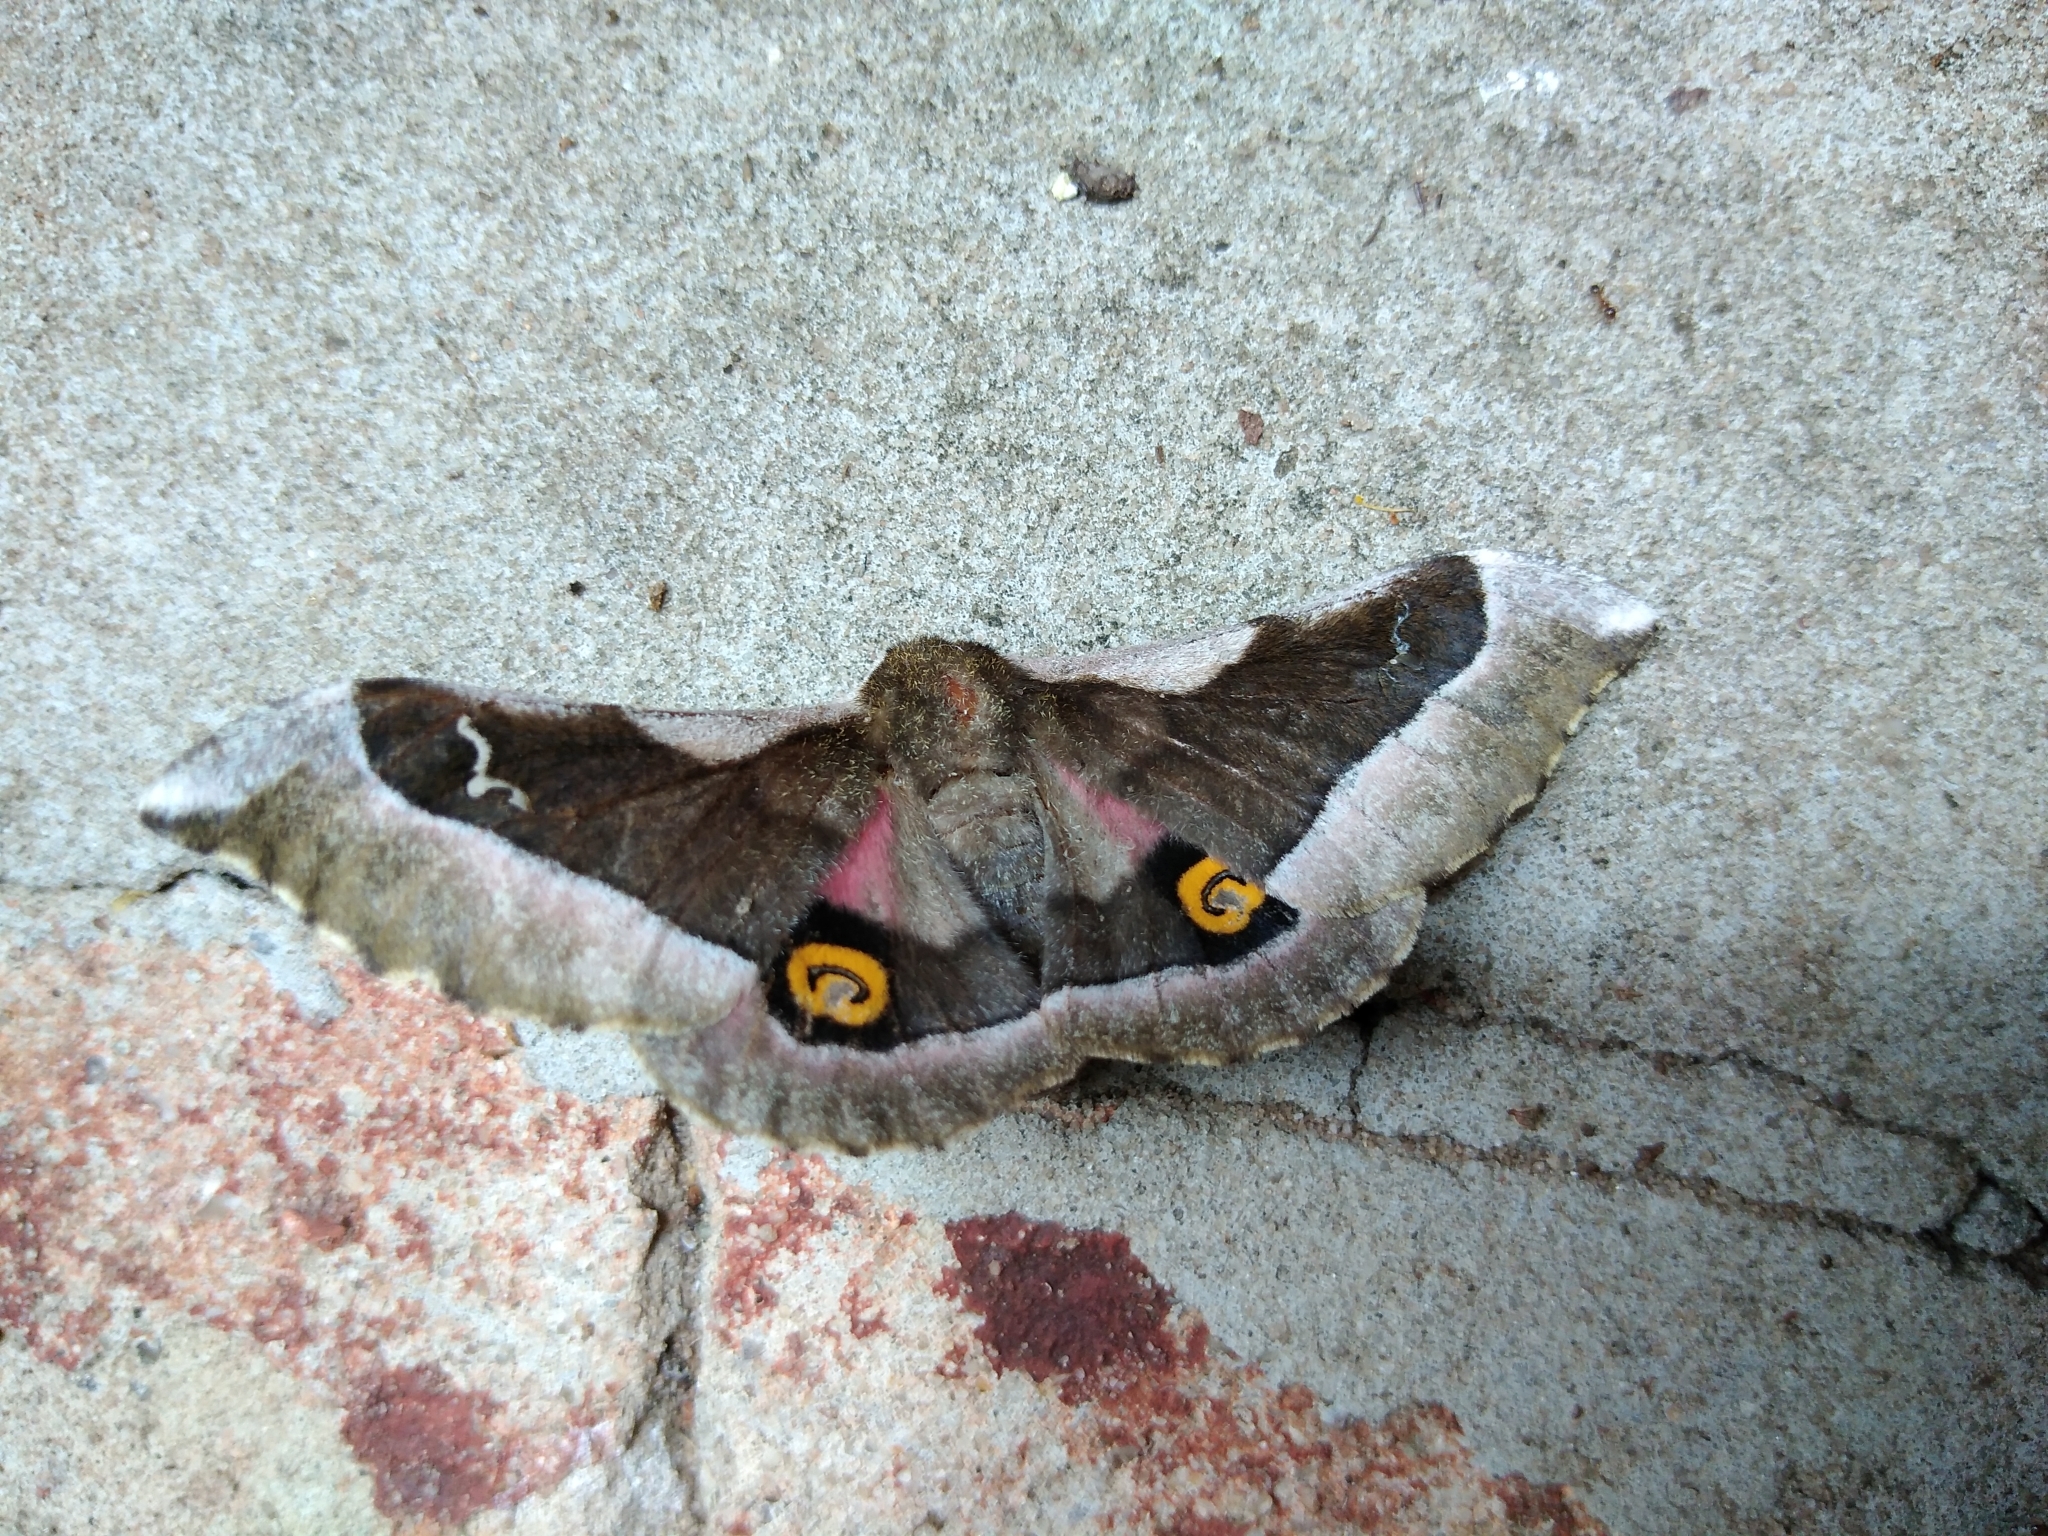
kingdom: Animalia
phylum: Arthropoda
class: Insecta
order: Lepidoptera
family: Saturniidae
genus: Ludia
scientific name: Ludia goniata
